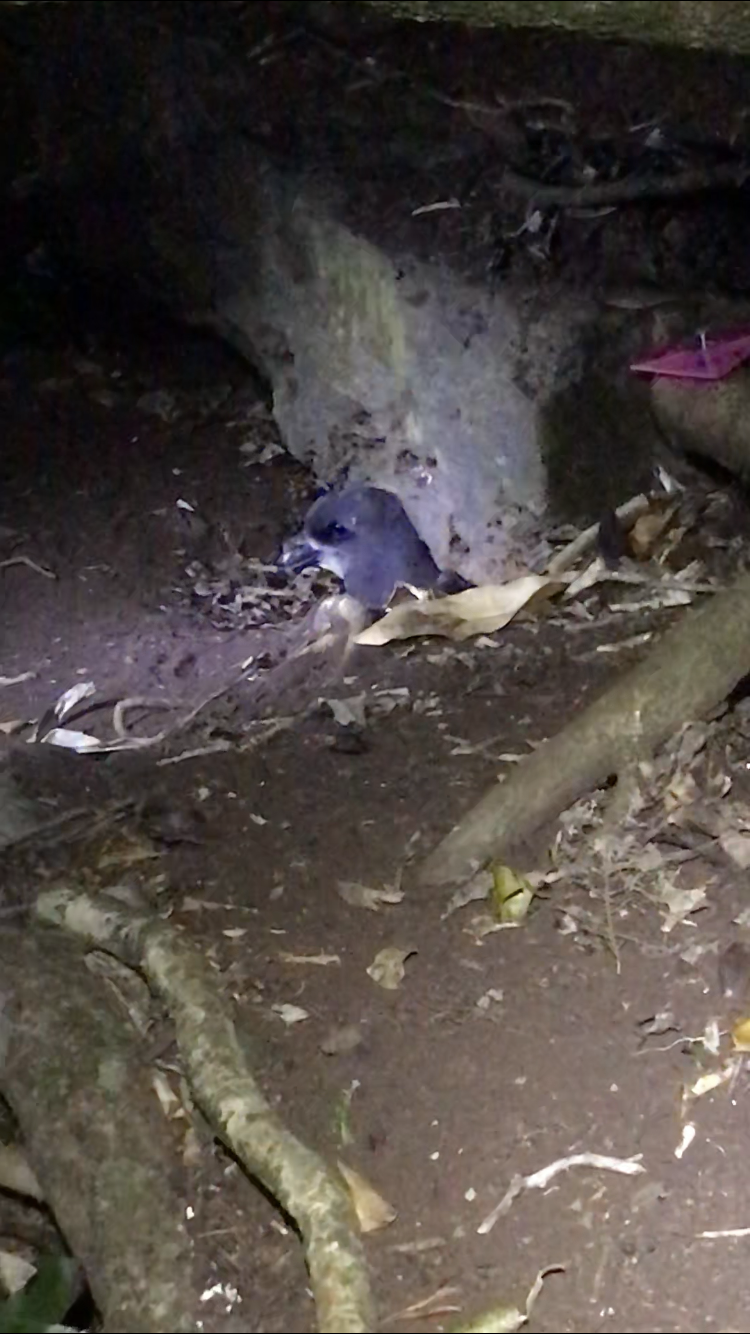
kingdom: Animalia
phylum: Chordata
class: Aves
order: Procellariiformes
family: Procellariidae
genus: Pterodroma
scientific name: Pterodroma macroptera
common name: Great-winged petrel
